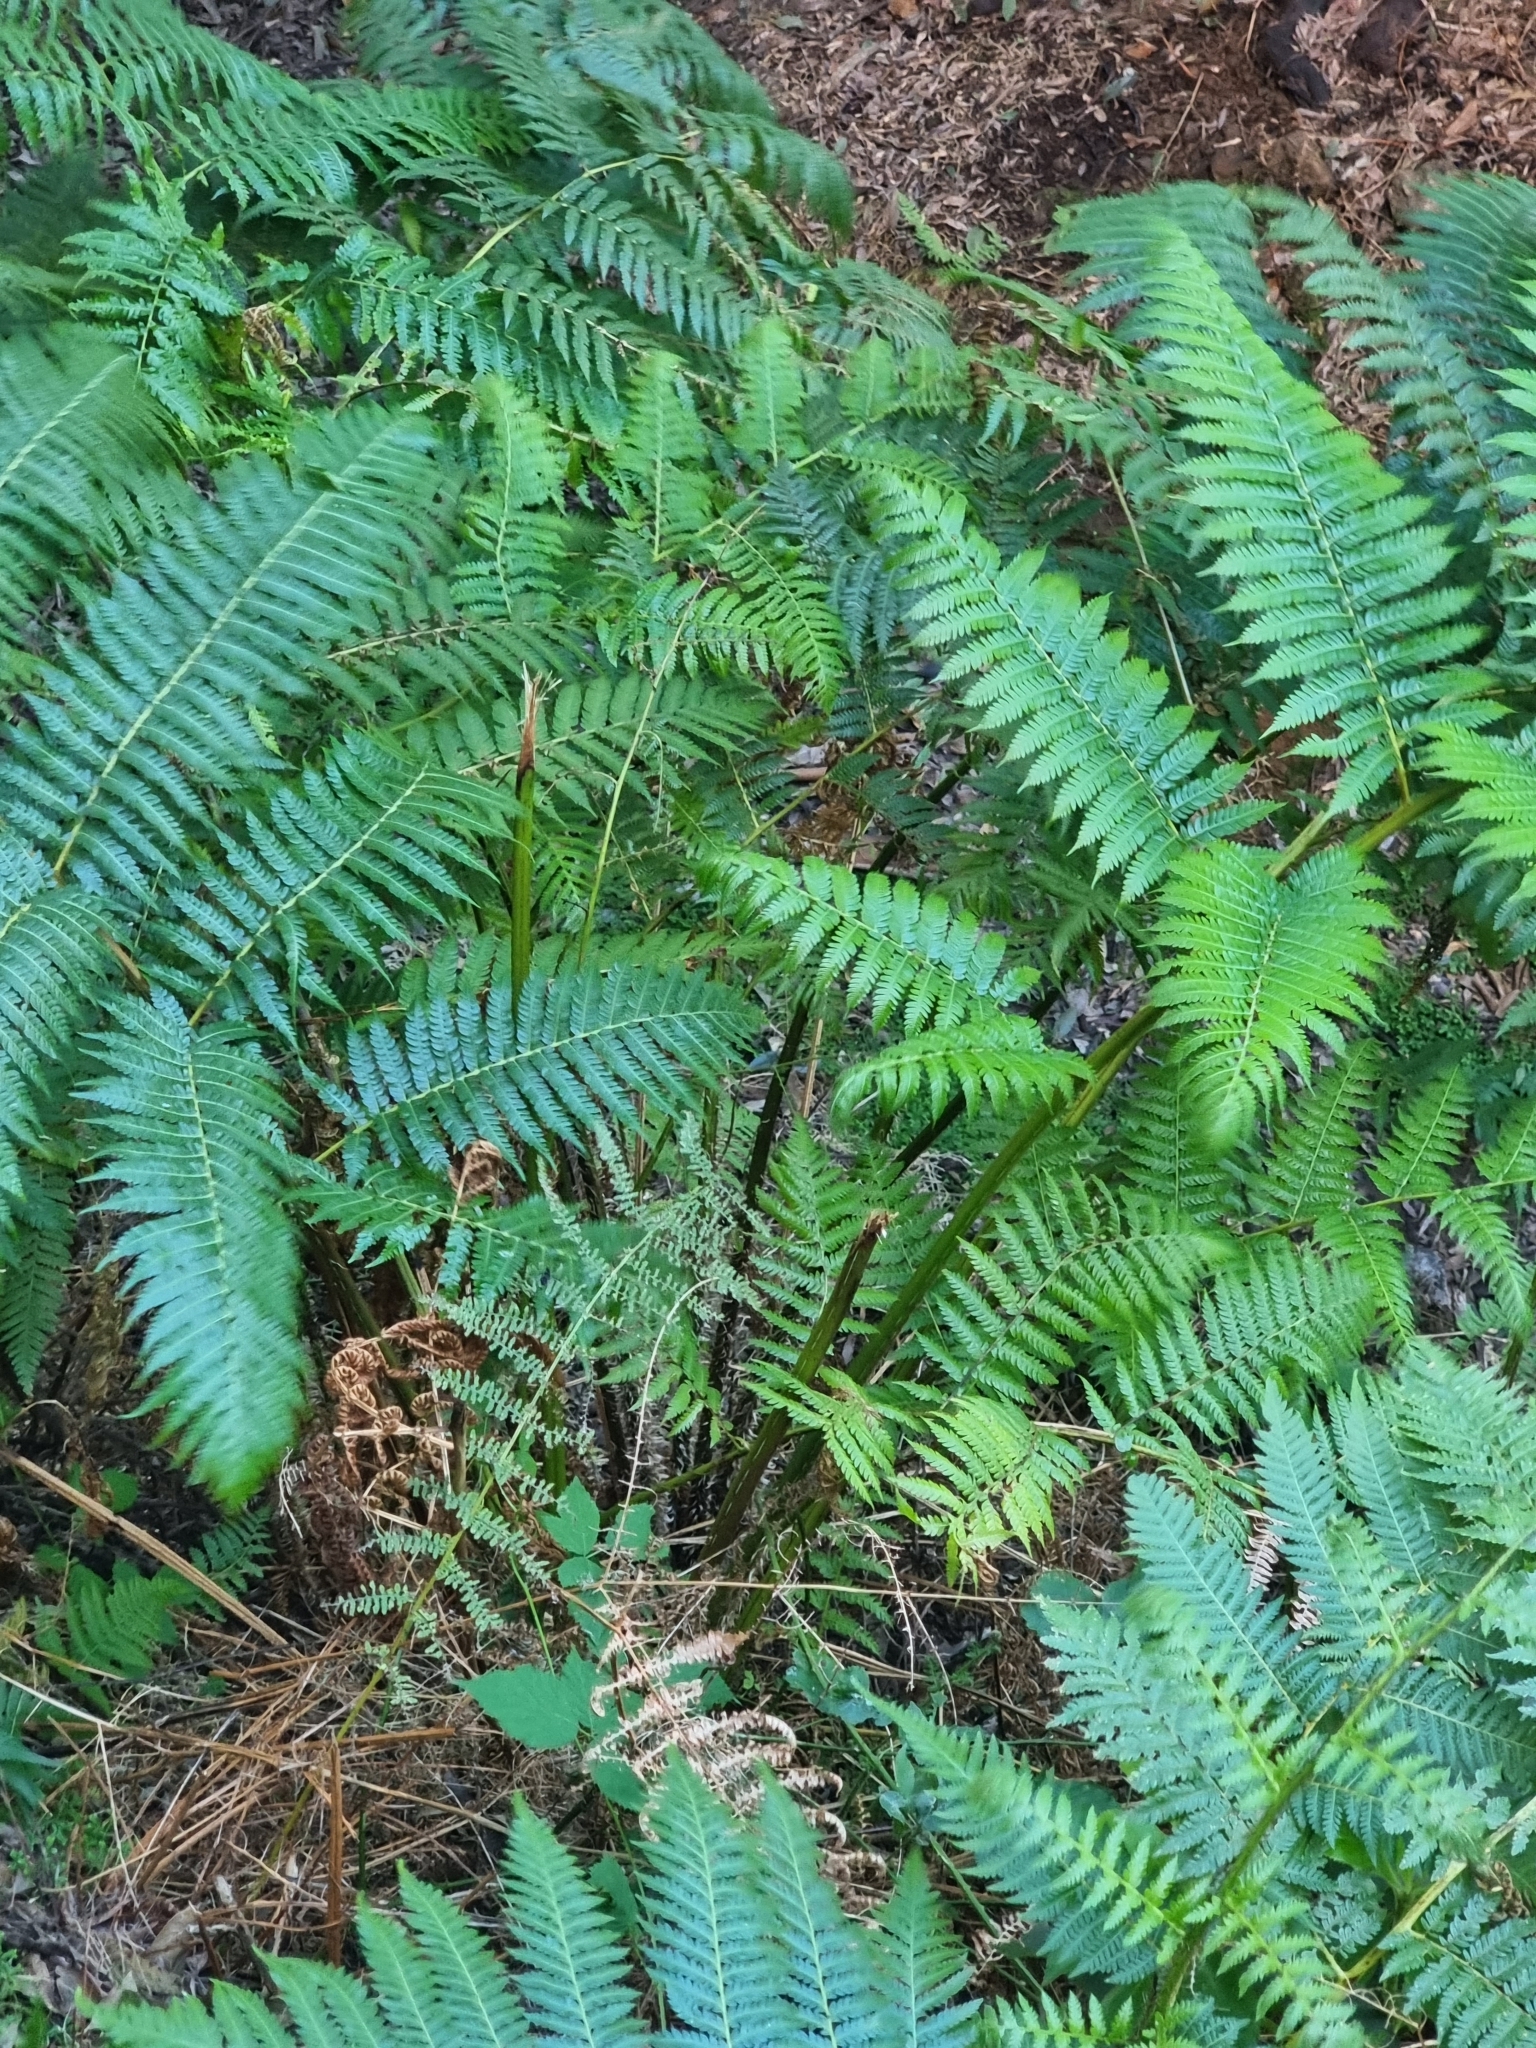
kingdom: Plantae
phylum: Tracheophyta
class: Polypodiopsida
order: Cyatheales
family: Cyatheaceae
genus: Sphaeropteris
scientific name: Sphaeropteris cooperi
